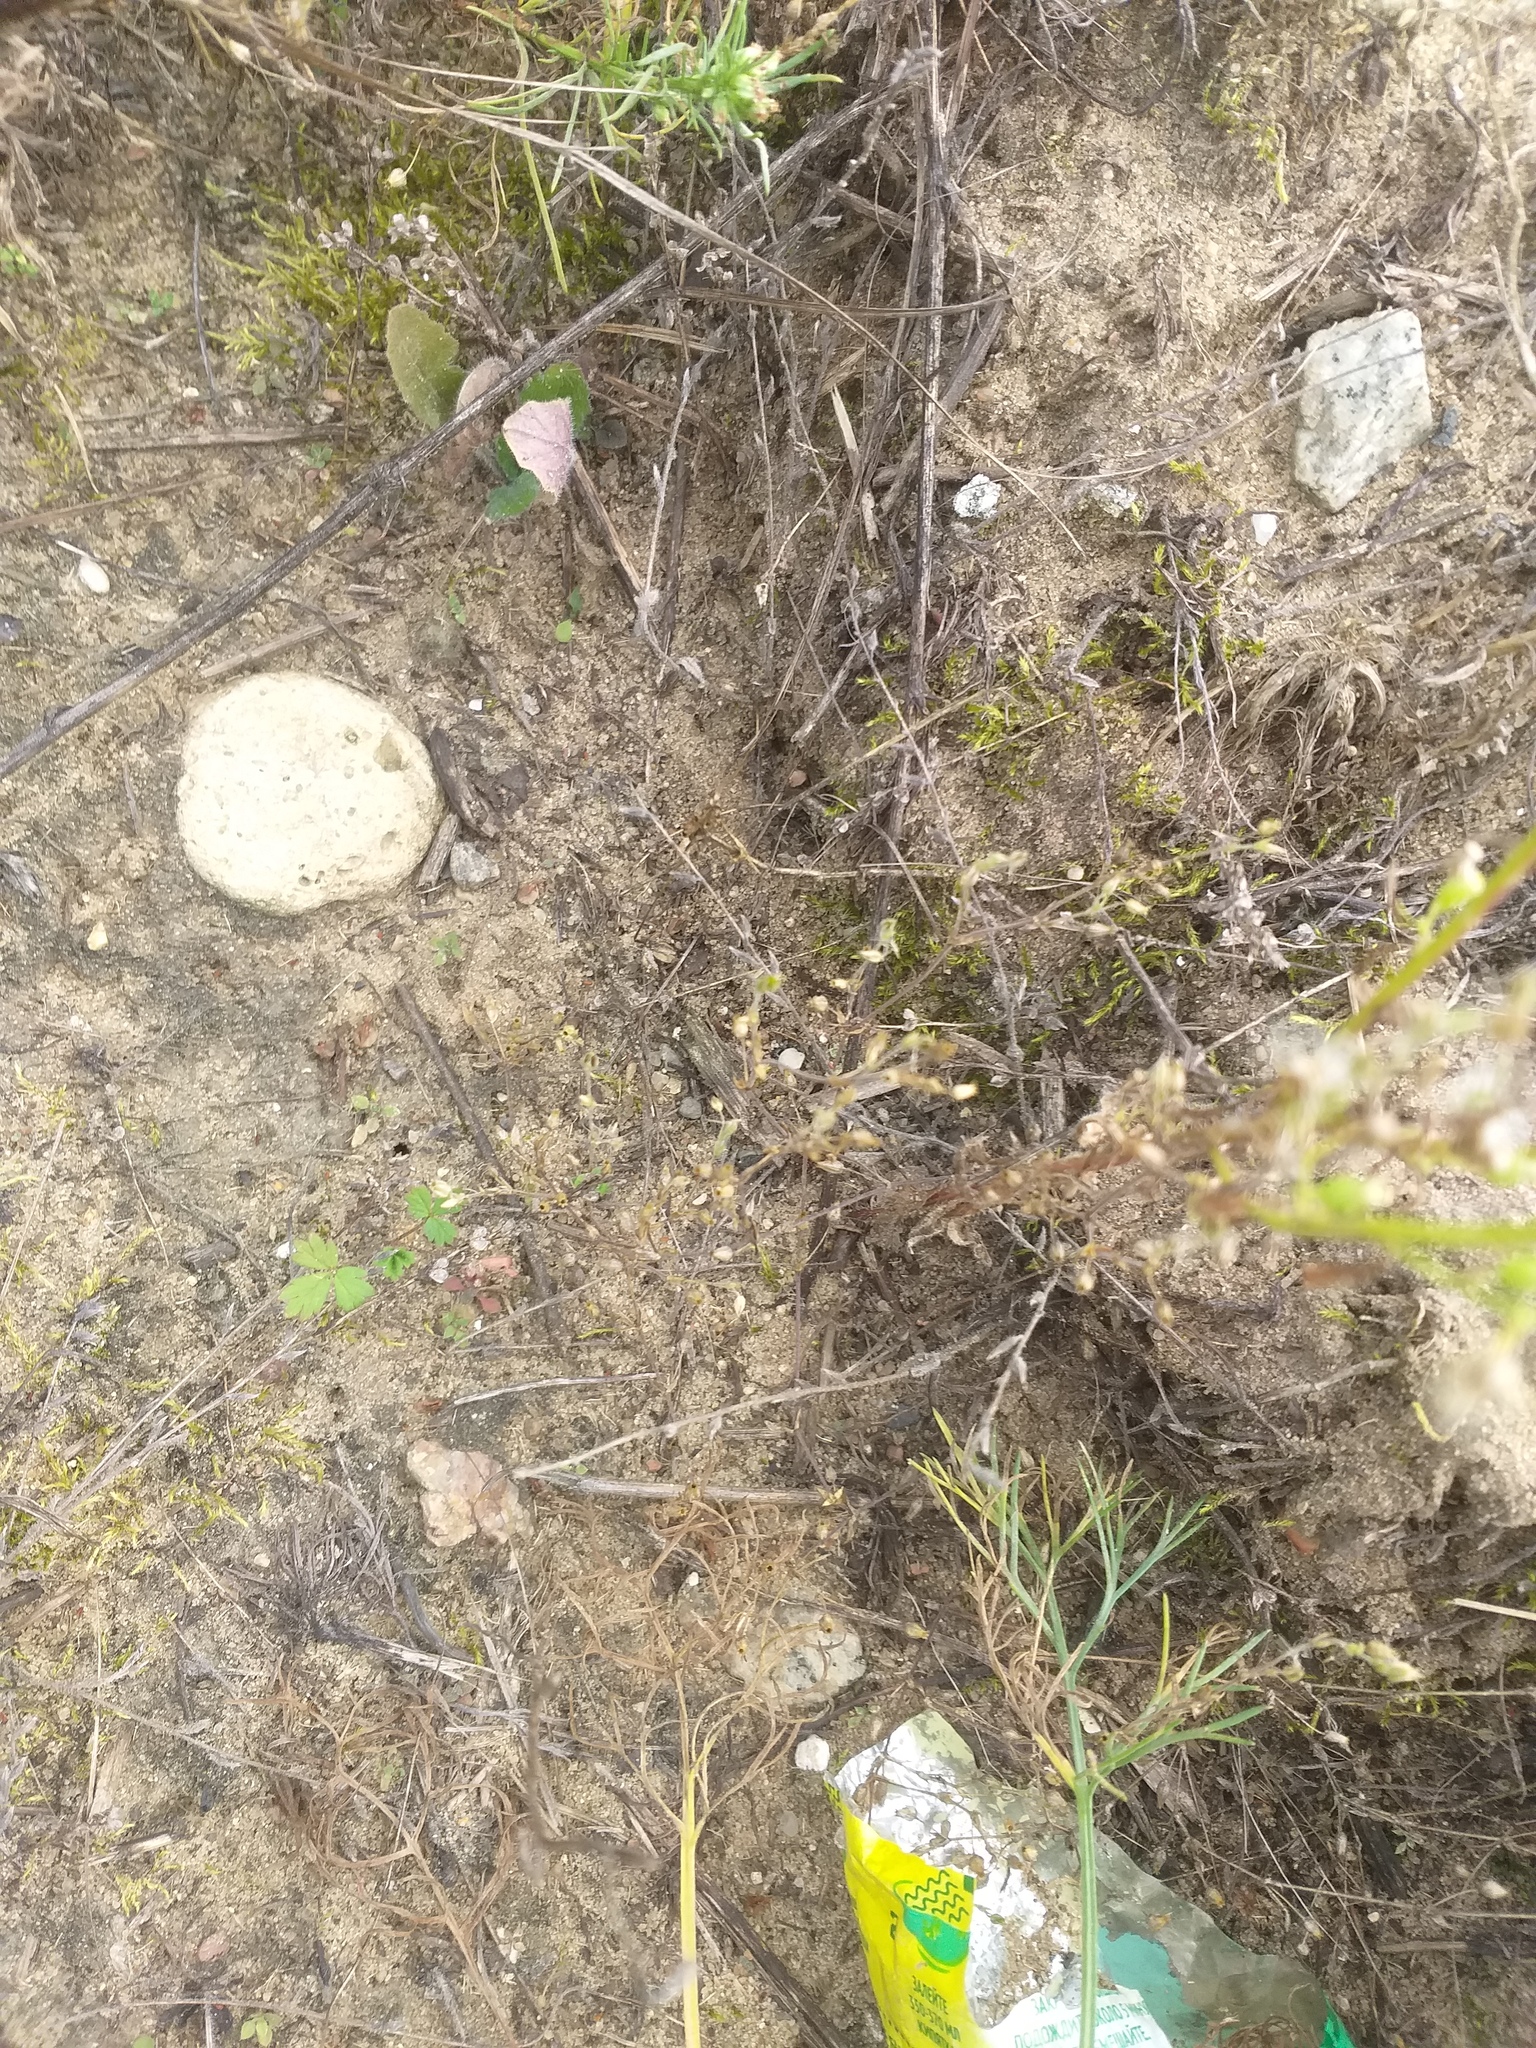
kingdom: Plantae
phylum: Tracheophyta
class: Magnoliopsida
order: Caryophyllales
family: Caryophyllaceae
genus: Arenaria
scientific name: Arenaria serpyllifolia
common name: Thyme-leaved sandwort
